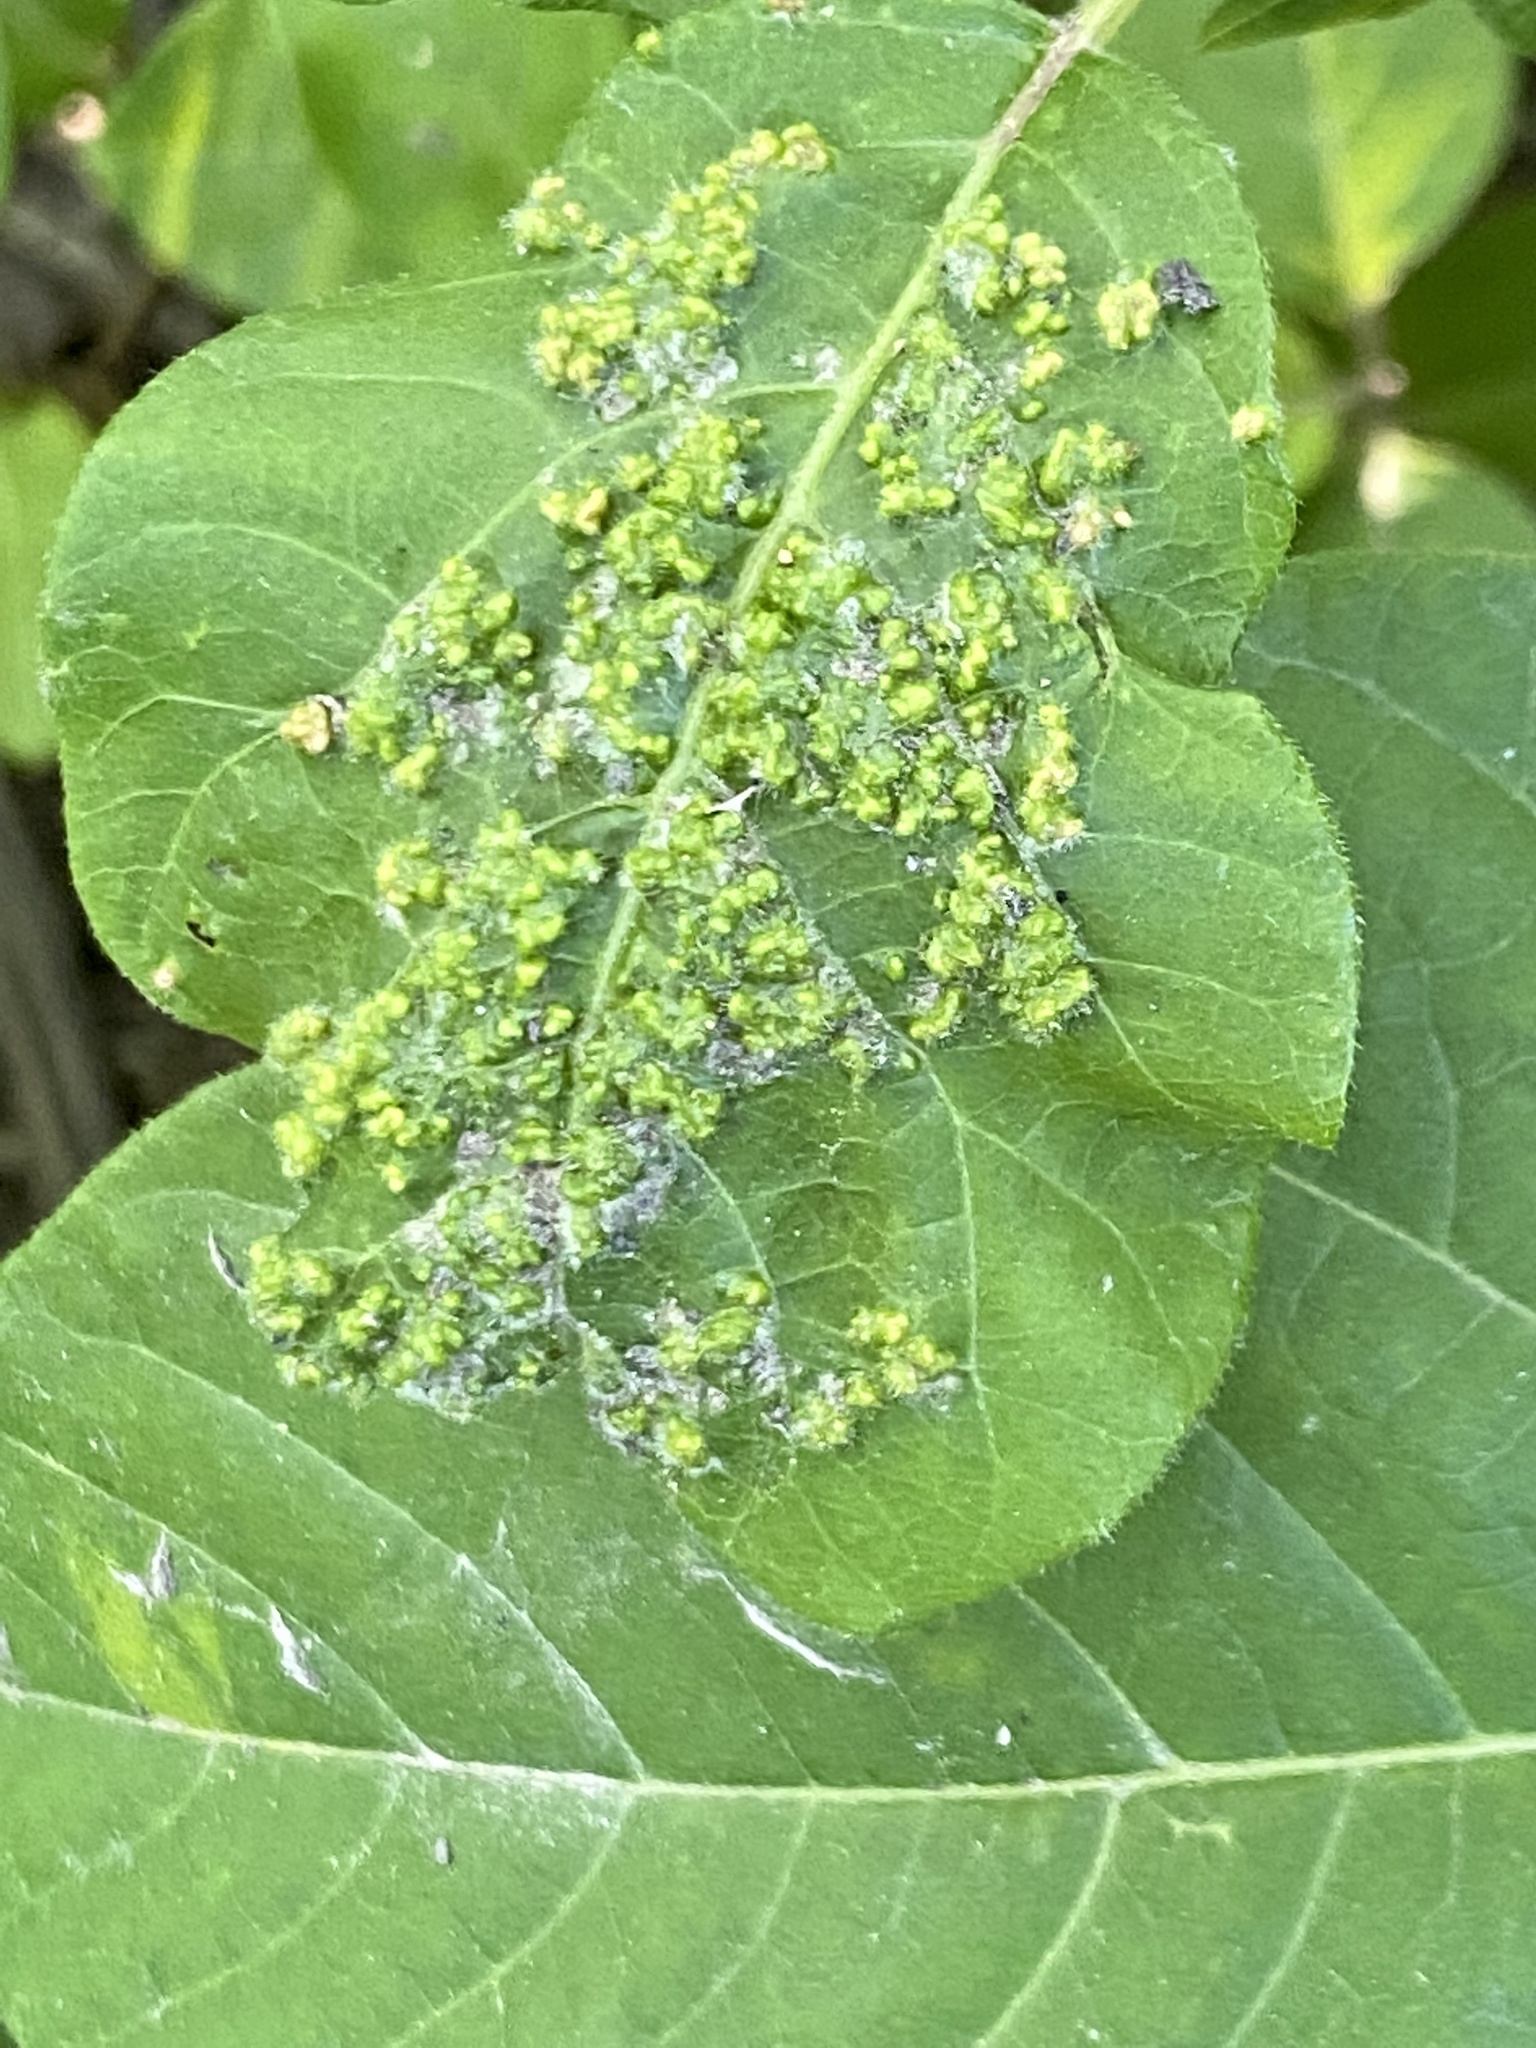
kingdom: Animalia
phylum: Arthropoda
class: Arachnida
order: Trombidiformes
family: Eriophyidae
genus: Aculops
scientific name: Aculops
